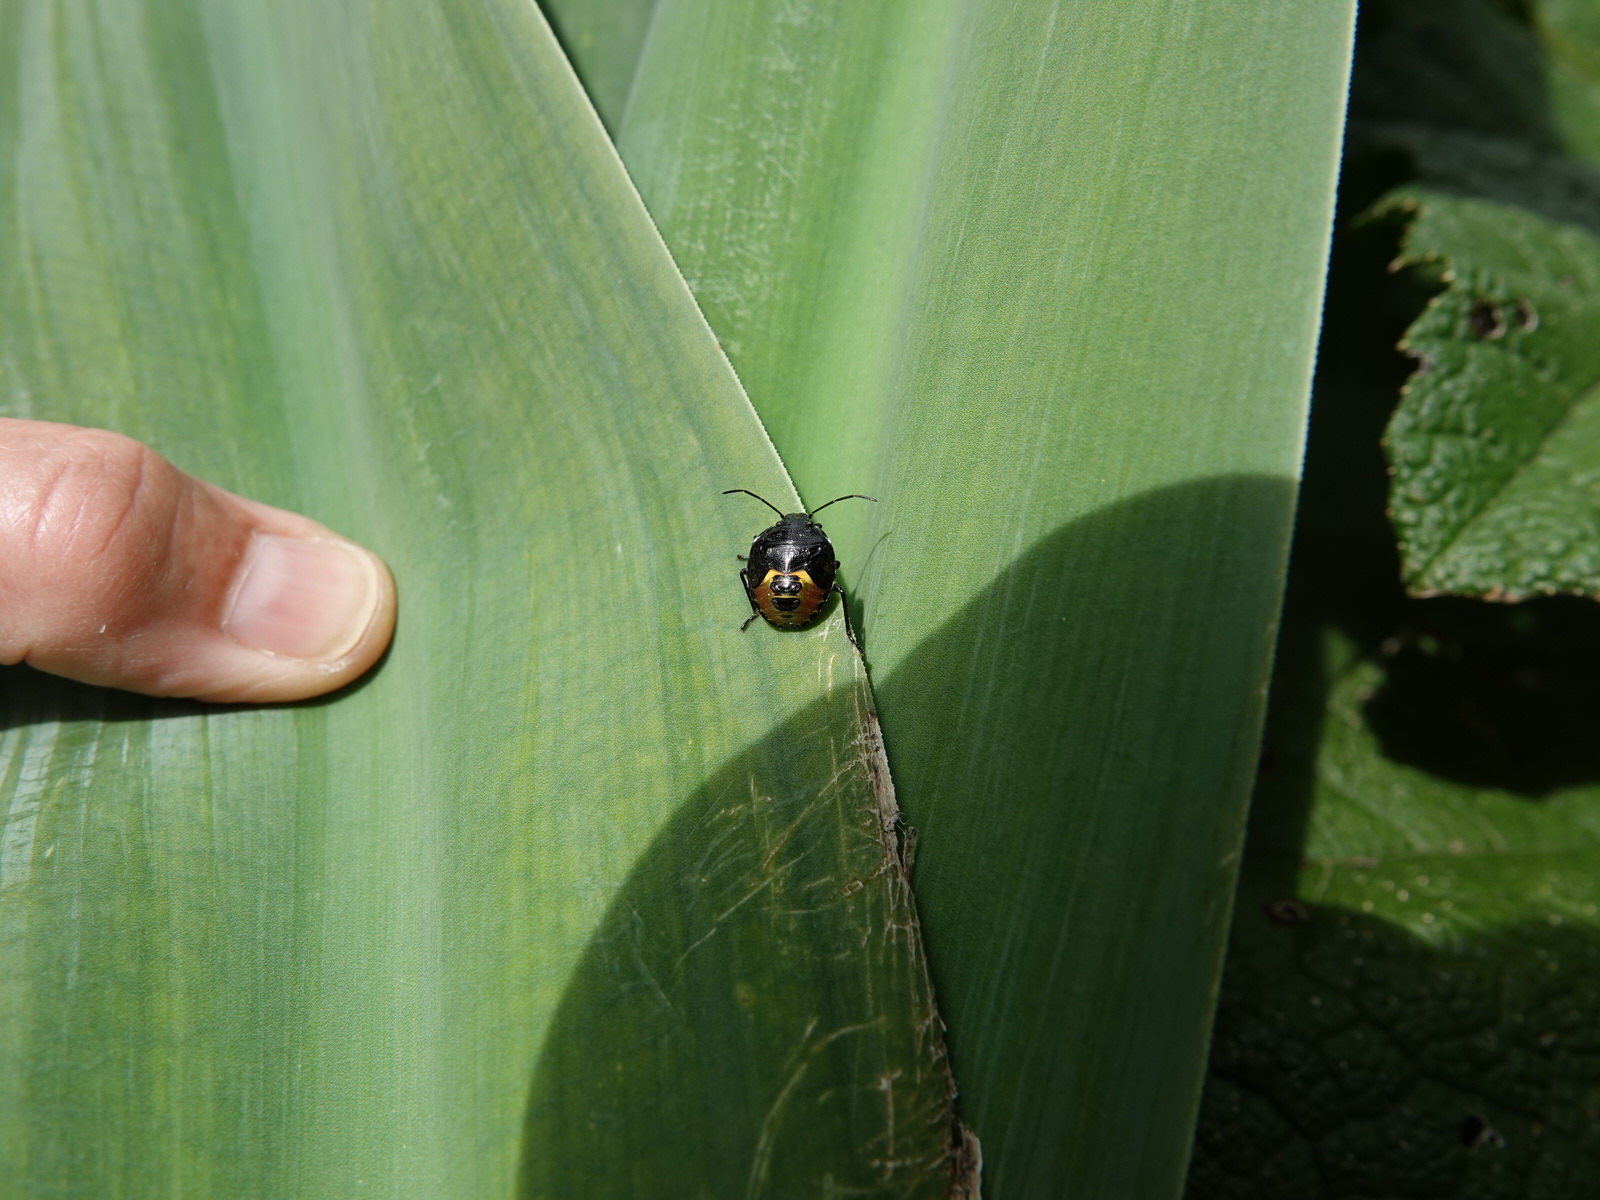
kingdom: Animalia
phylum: Arthropoda
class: Insecta
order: Hemiptera
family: Pentatomidae
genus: Glaucias
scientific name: Glaucias amyota
